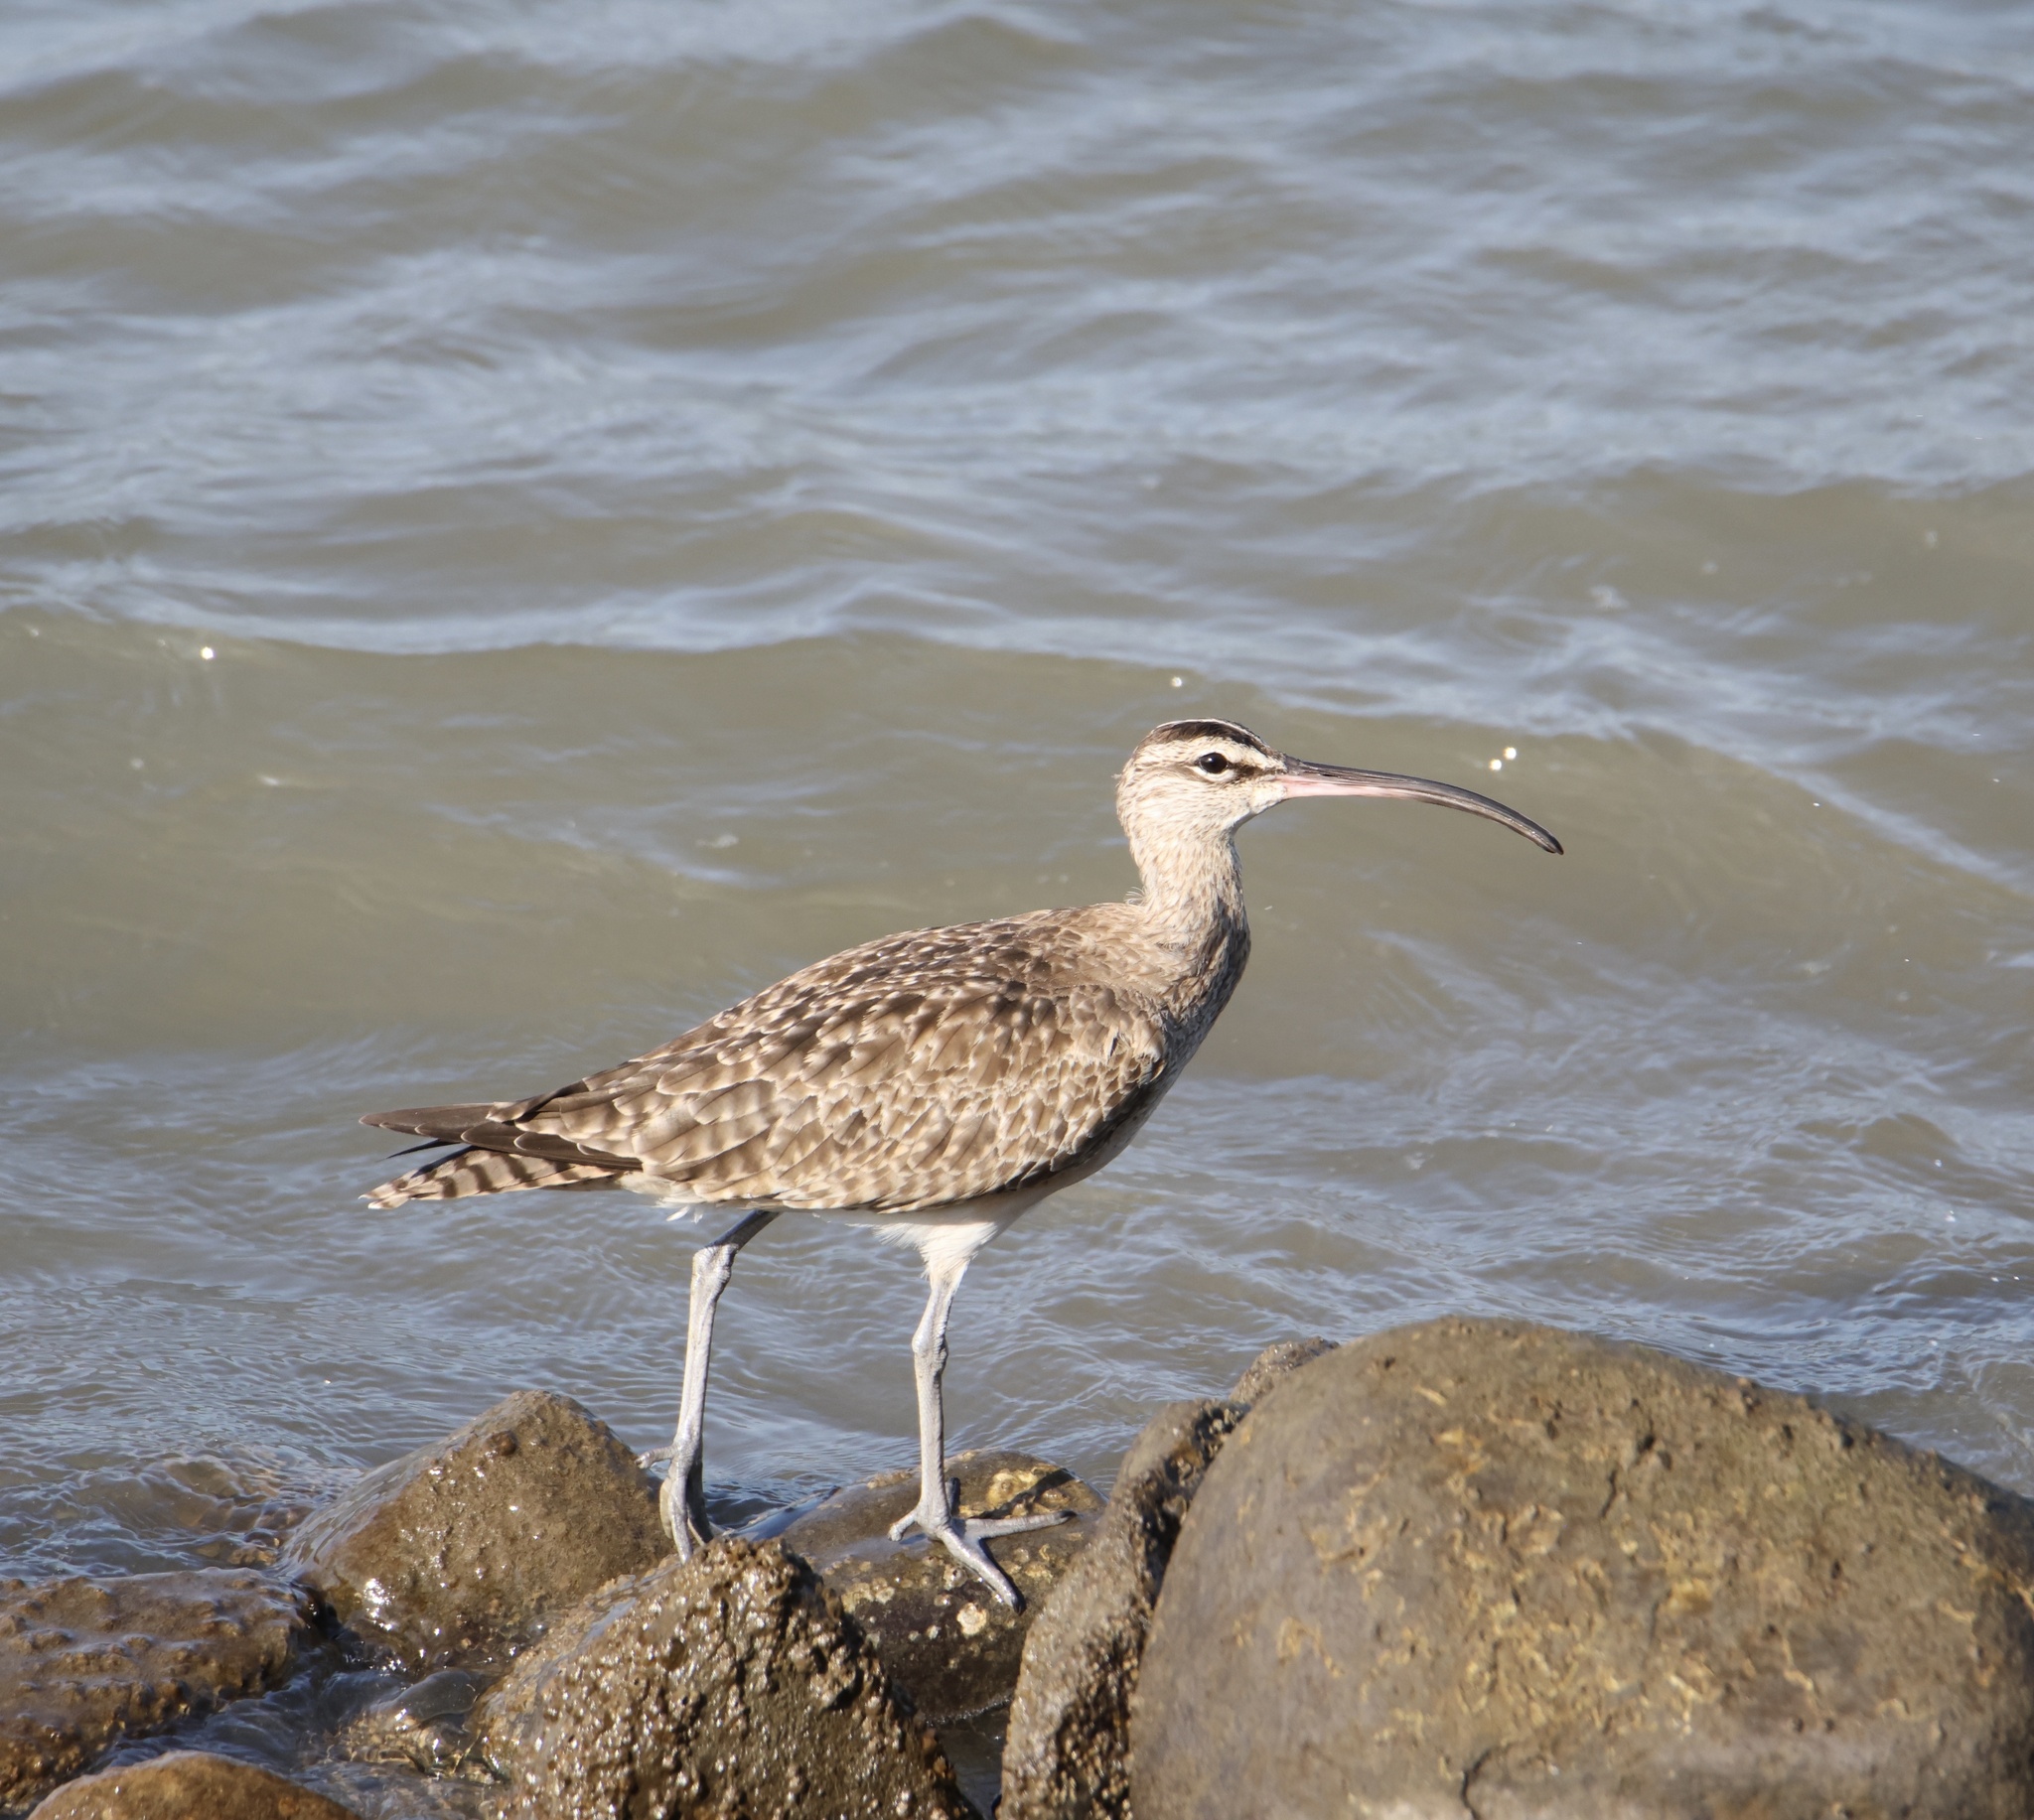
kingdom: Animalia
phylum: Chordata
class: Aves
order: Charadriiformes
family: Scolopacidae
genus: Numenius
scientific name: Numenius phaeopus
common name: Whimbrel
